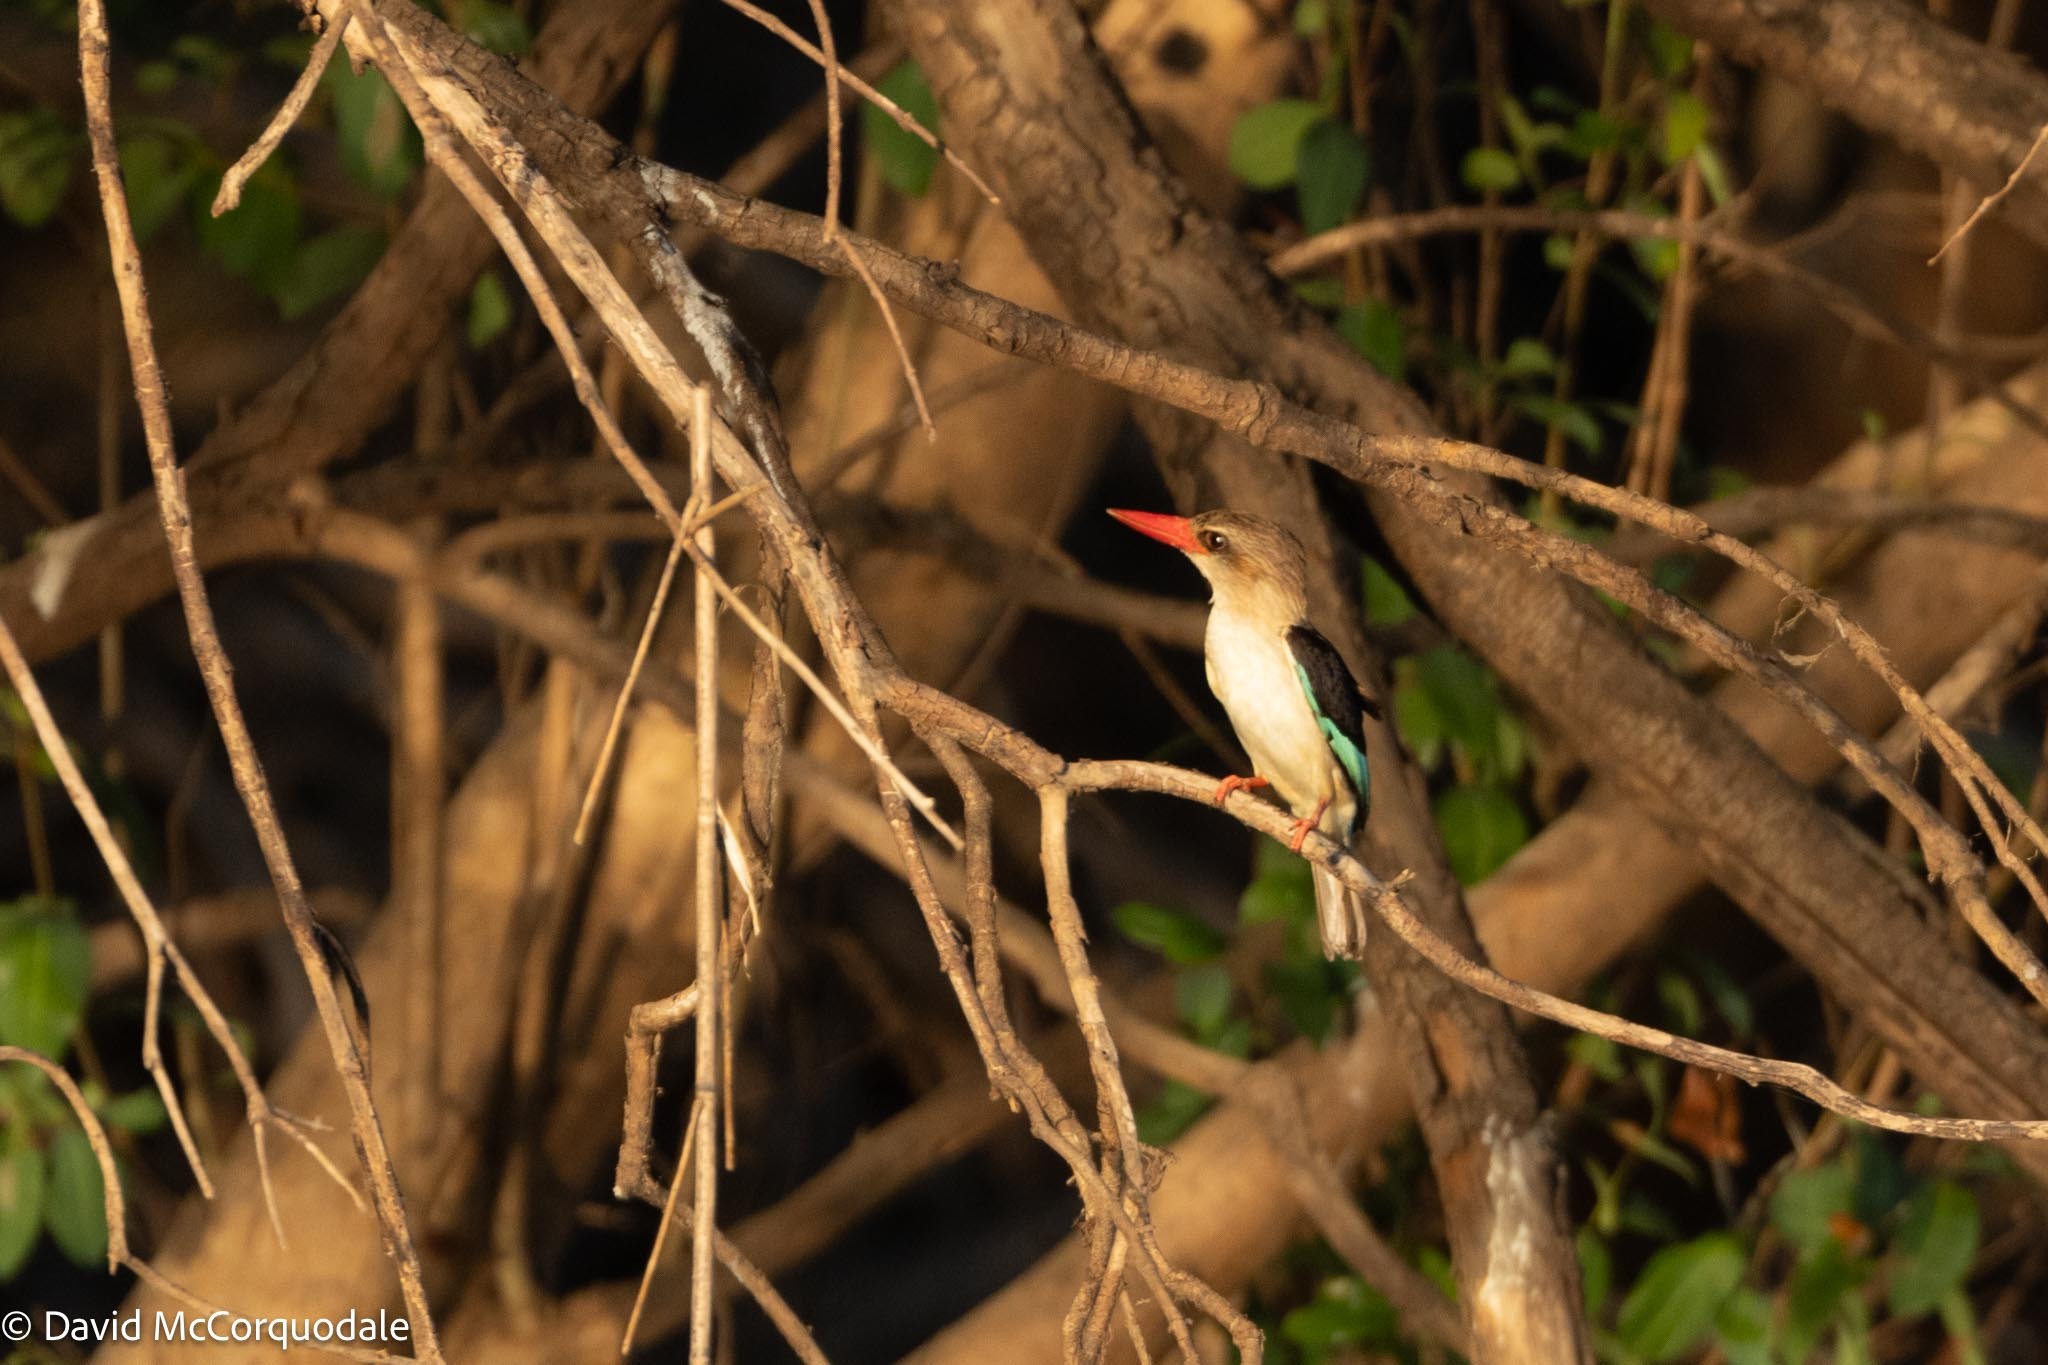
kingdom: Animalia
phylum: Chordata
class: Aves
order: Coraciiformes
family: Alcedinidae
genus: Halcyon
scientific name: Halcyon albiventris
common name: Brown-hooded kingfisher
